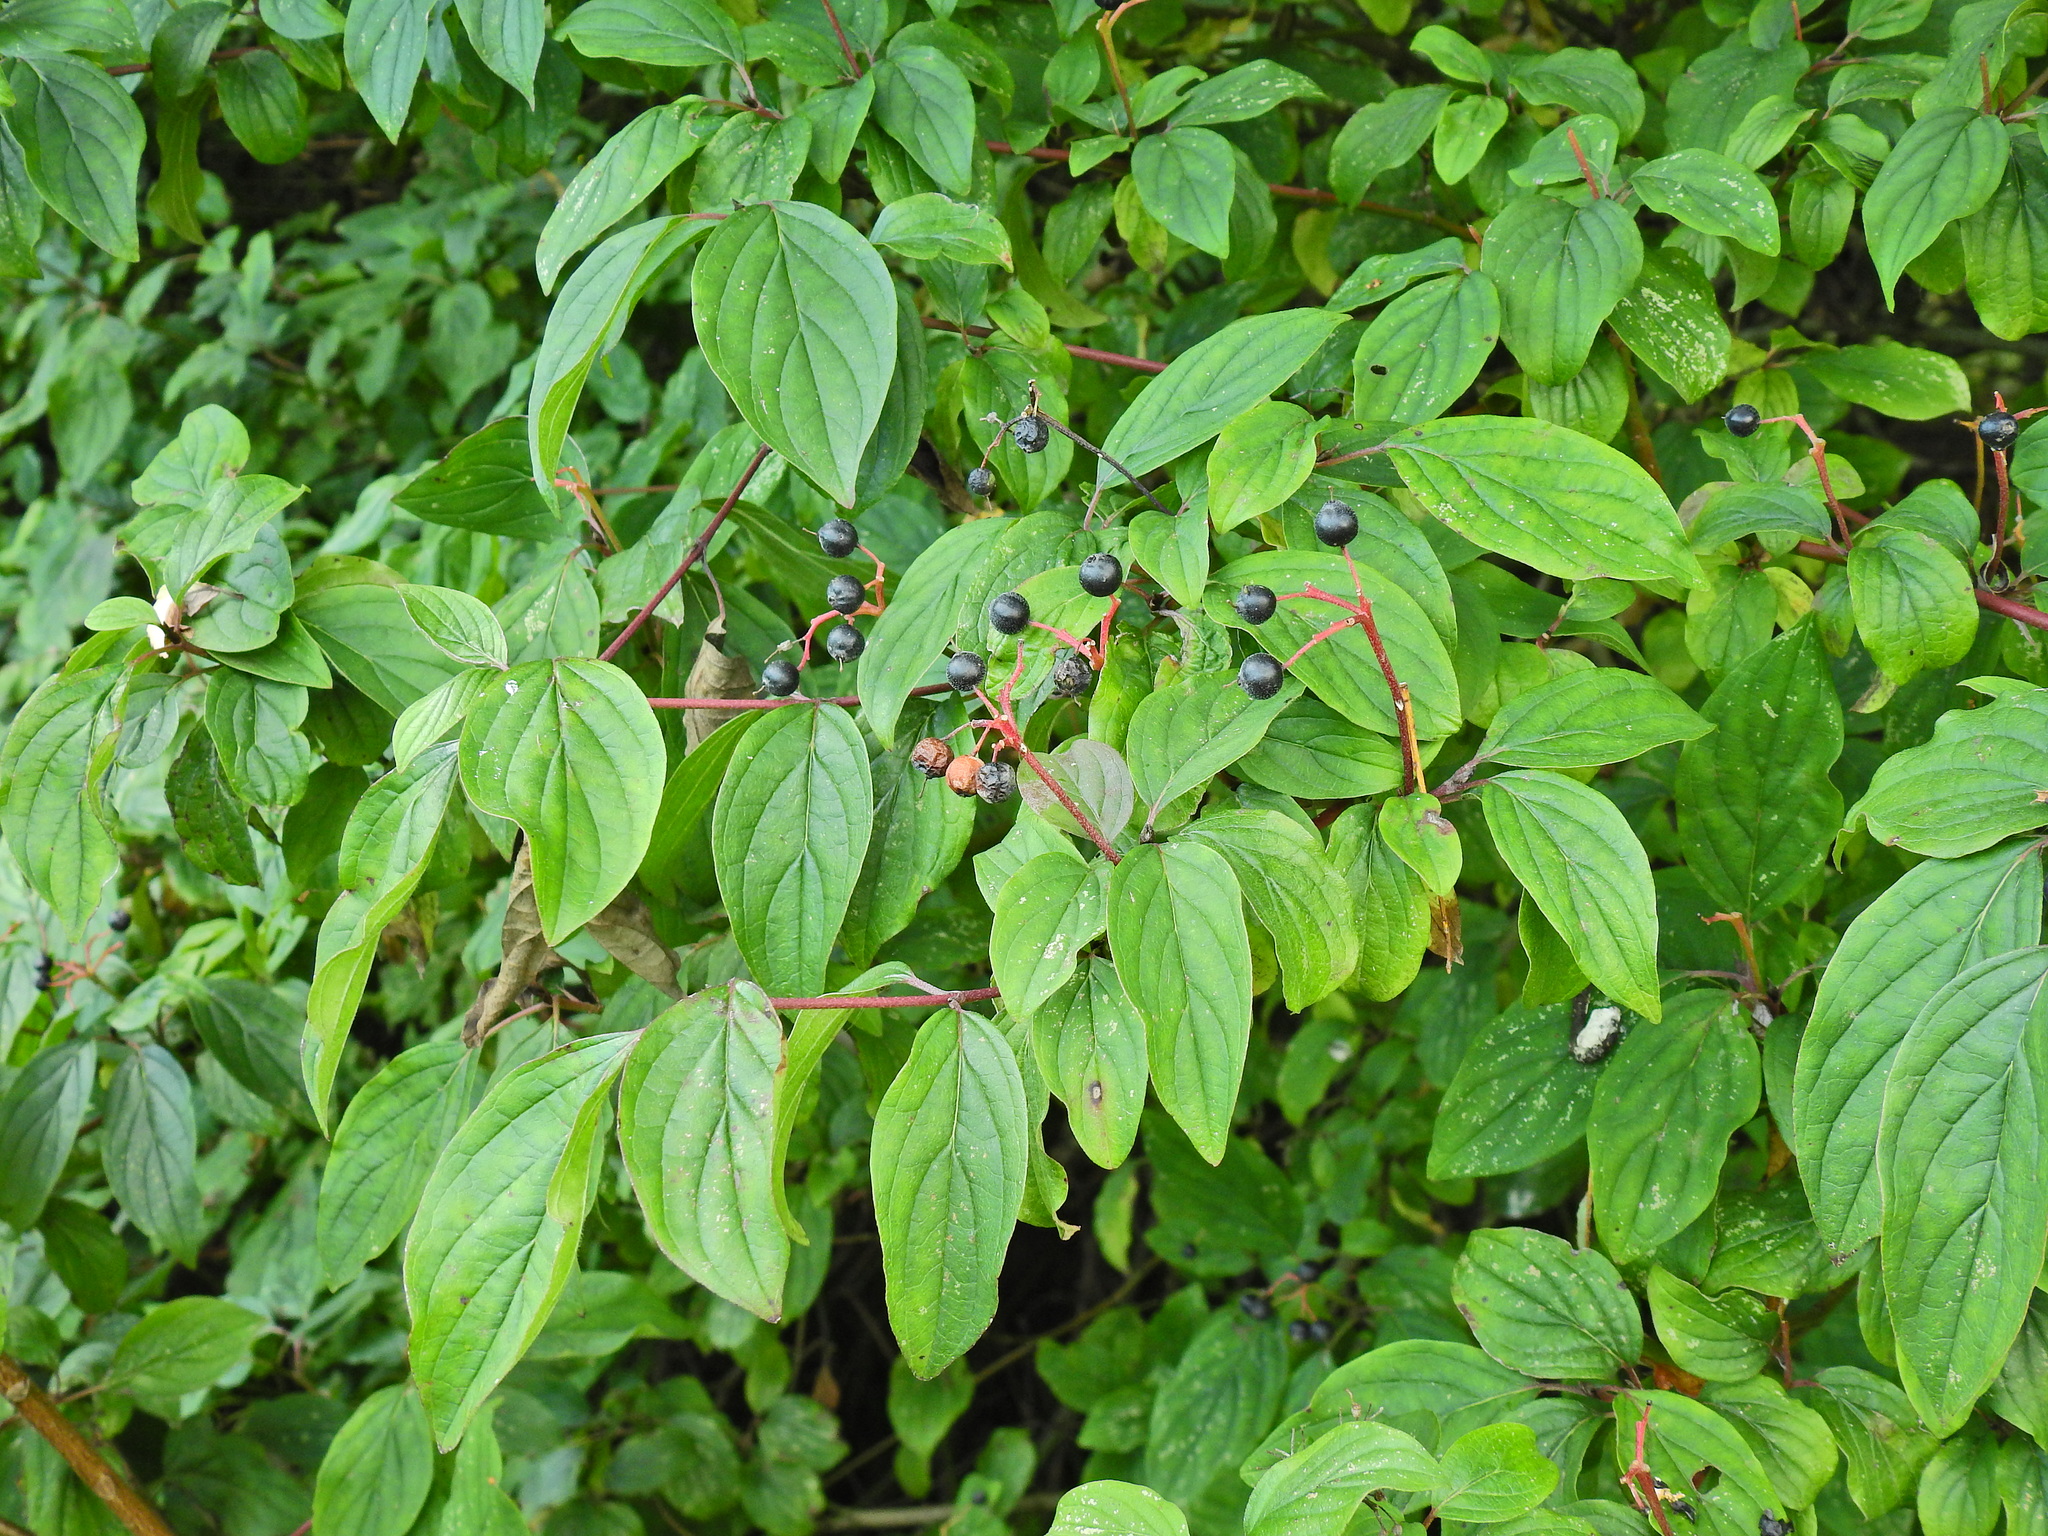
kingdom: Plantae
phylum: Tracheophyta
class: Magnoliopsida
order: Cornales
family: Cornaceae
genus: Cornus
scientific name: Cornus sanguinea
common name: Dogwood
